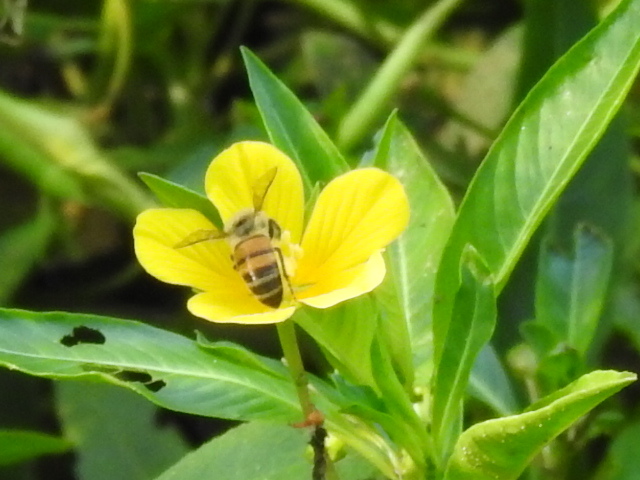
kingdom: Animalia
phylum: Arthropoda
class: Insecta
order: Hymenoptera
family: Apidae
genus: Apis
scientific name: Apis mellifera
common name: Honey bee
